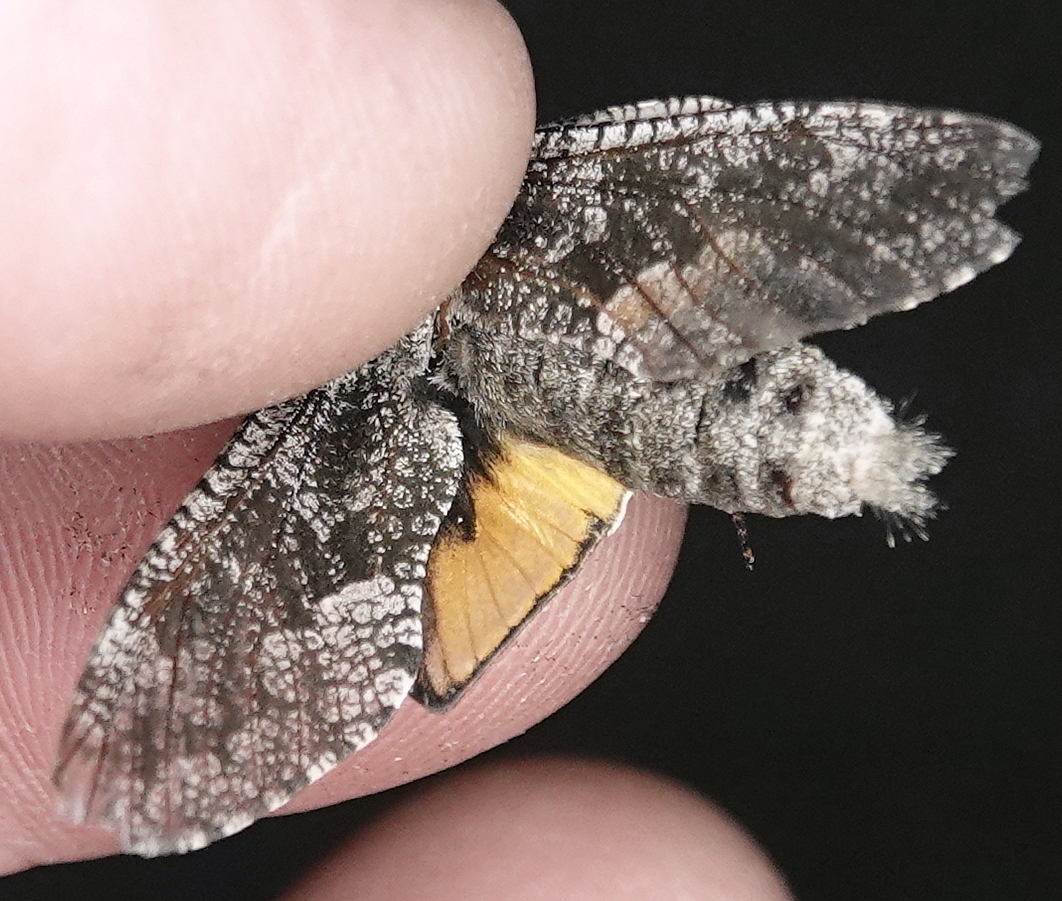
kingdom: Animalia
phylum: Arthropoda
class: Insecta
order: Lepidoptera
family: Cossidae
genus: Prionoxystus
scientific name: Prionoxystus robiniae
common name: Carpenterworm
